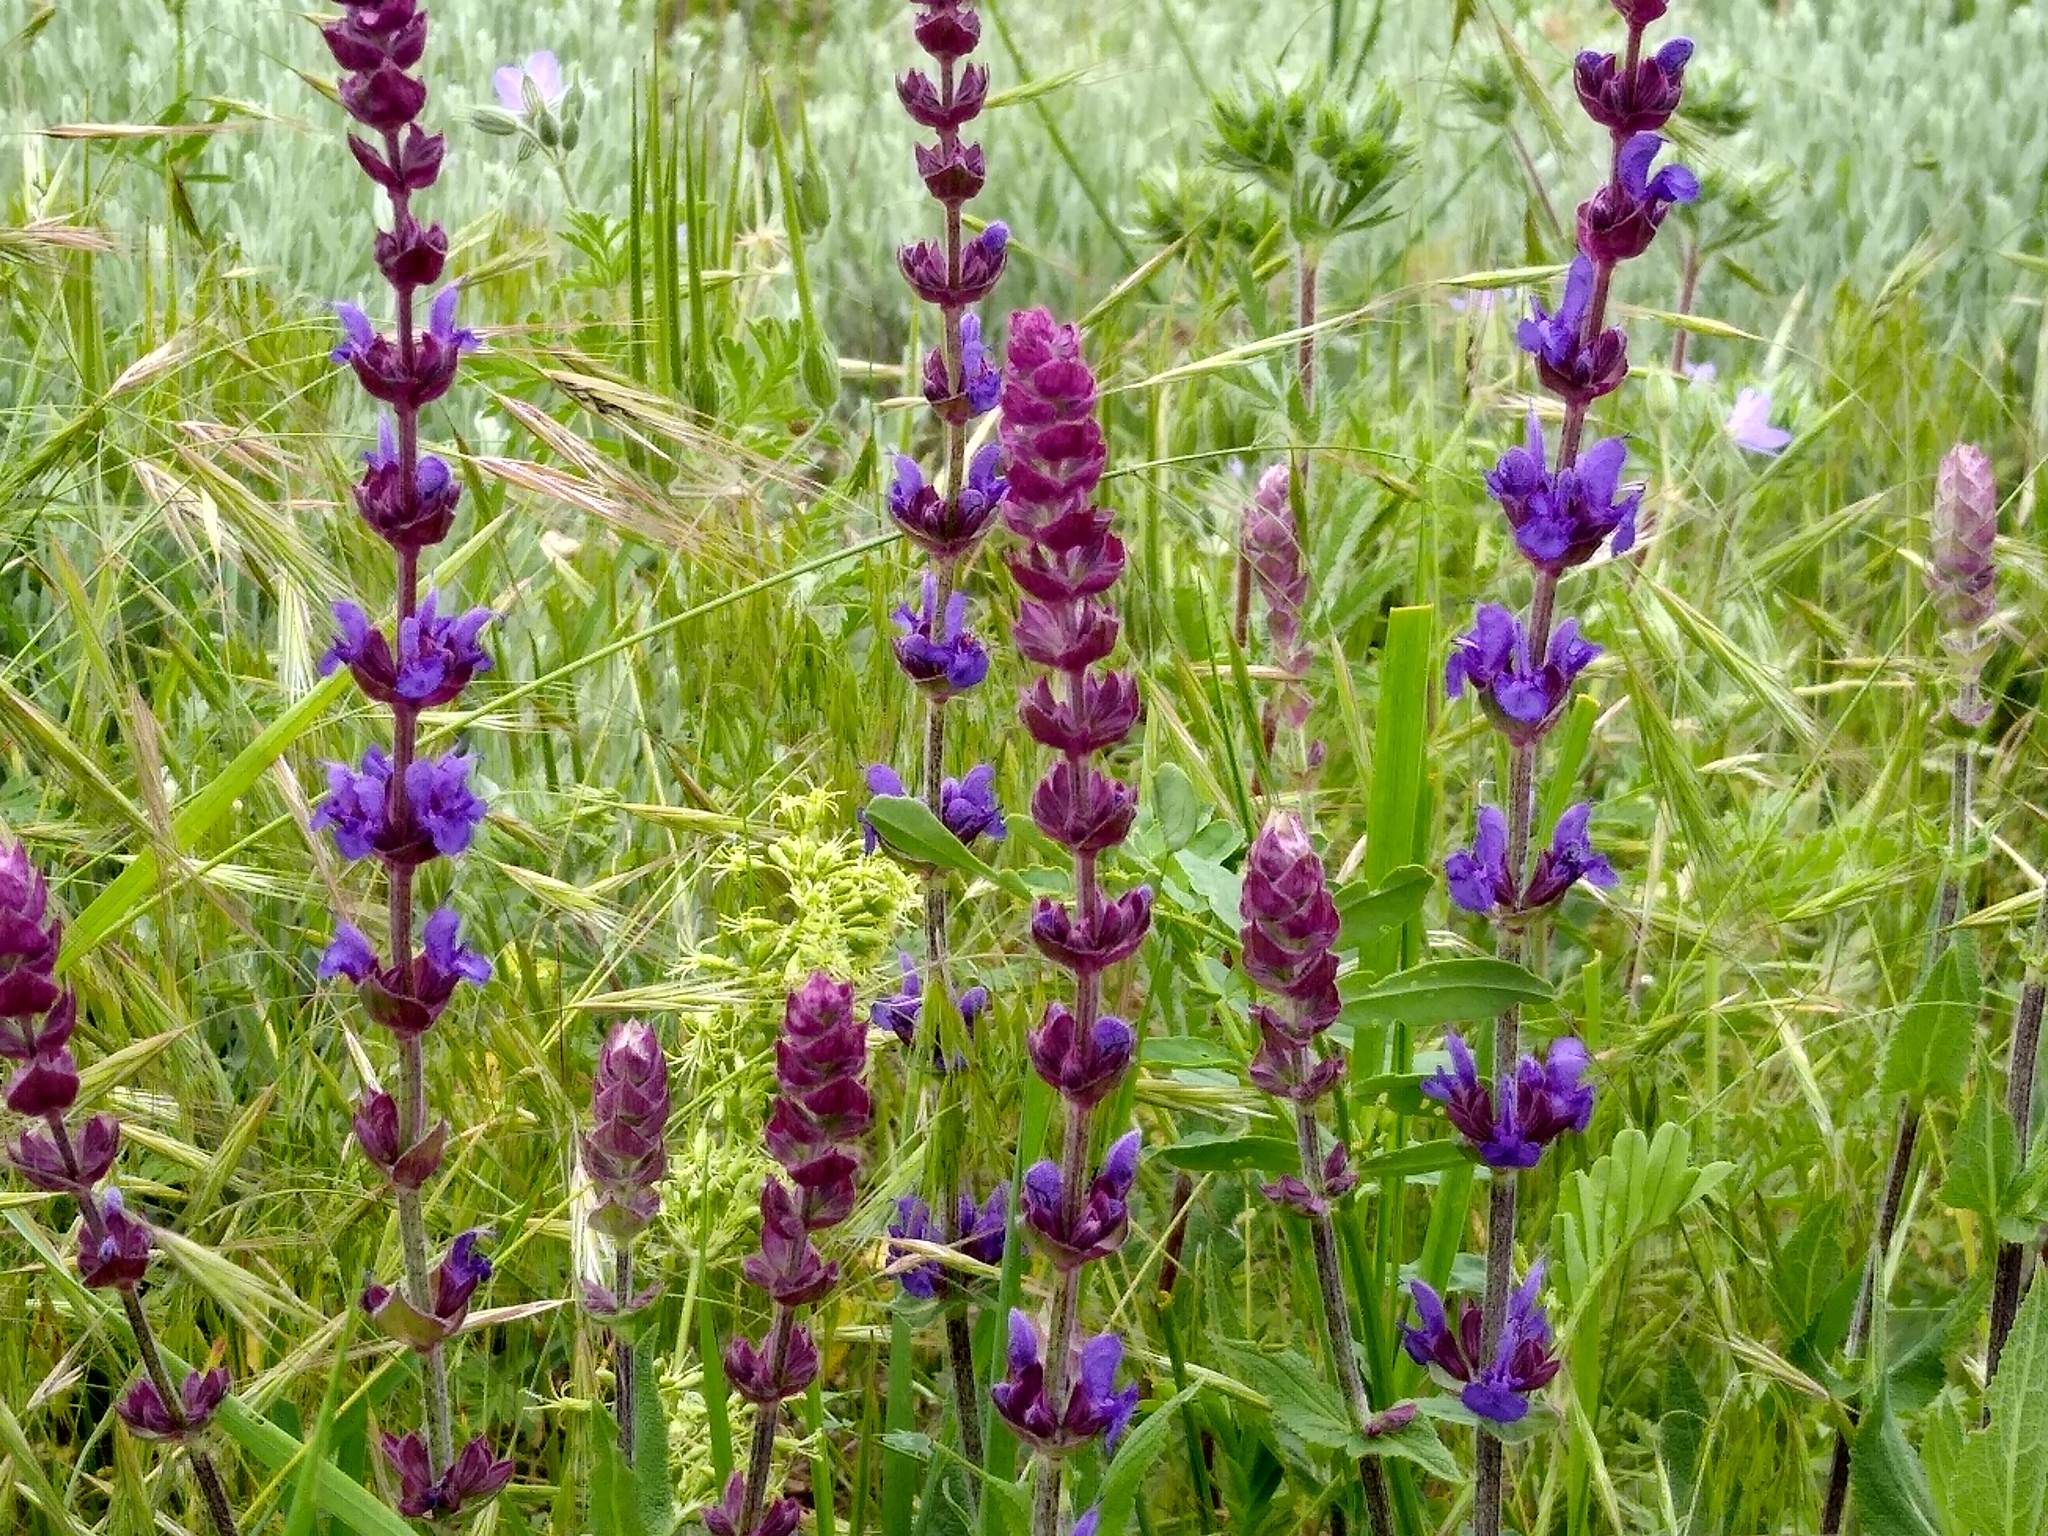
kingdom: Plantae
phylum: Tracheophyta
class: Magnoliopsida
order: Lamiales
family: Lamiaceae
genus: Salvia
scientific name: Salvia nemorosa
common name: Balkan clary
